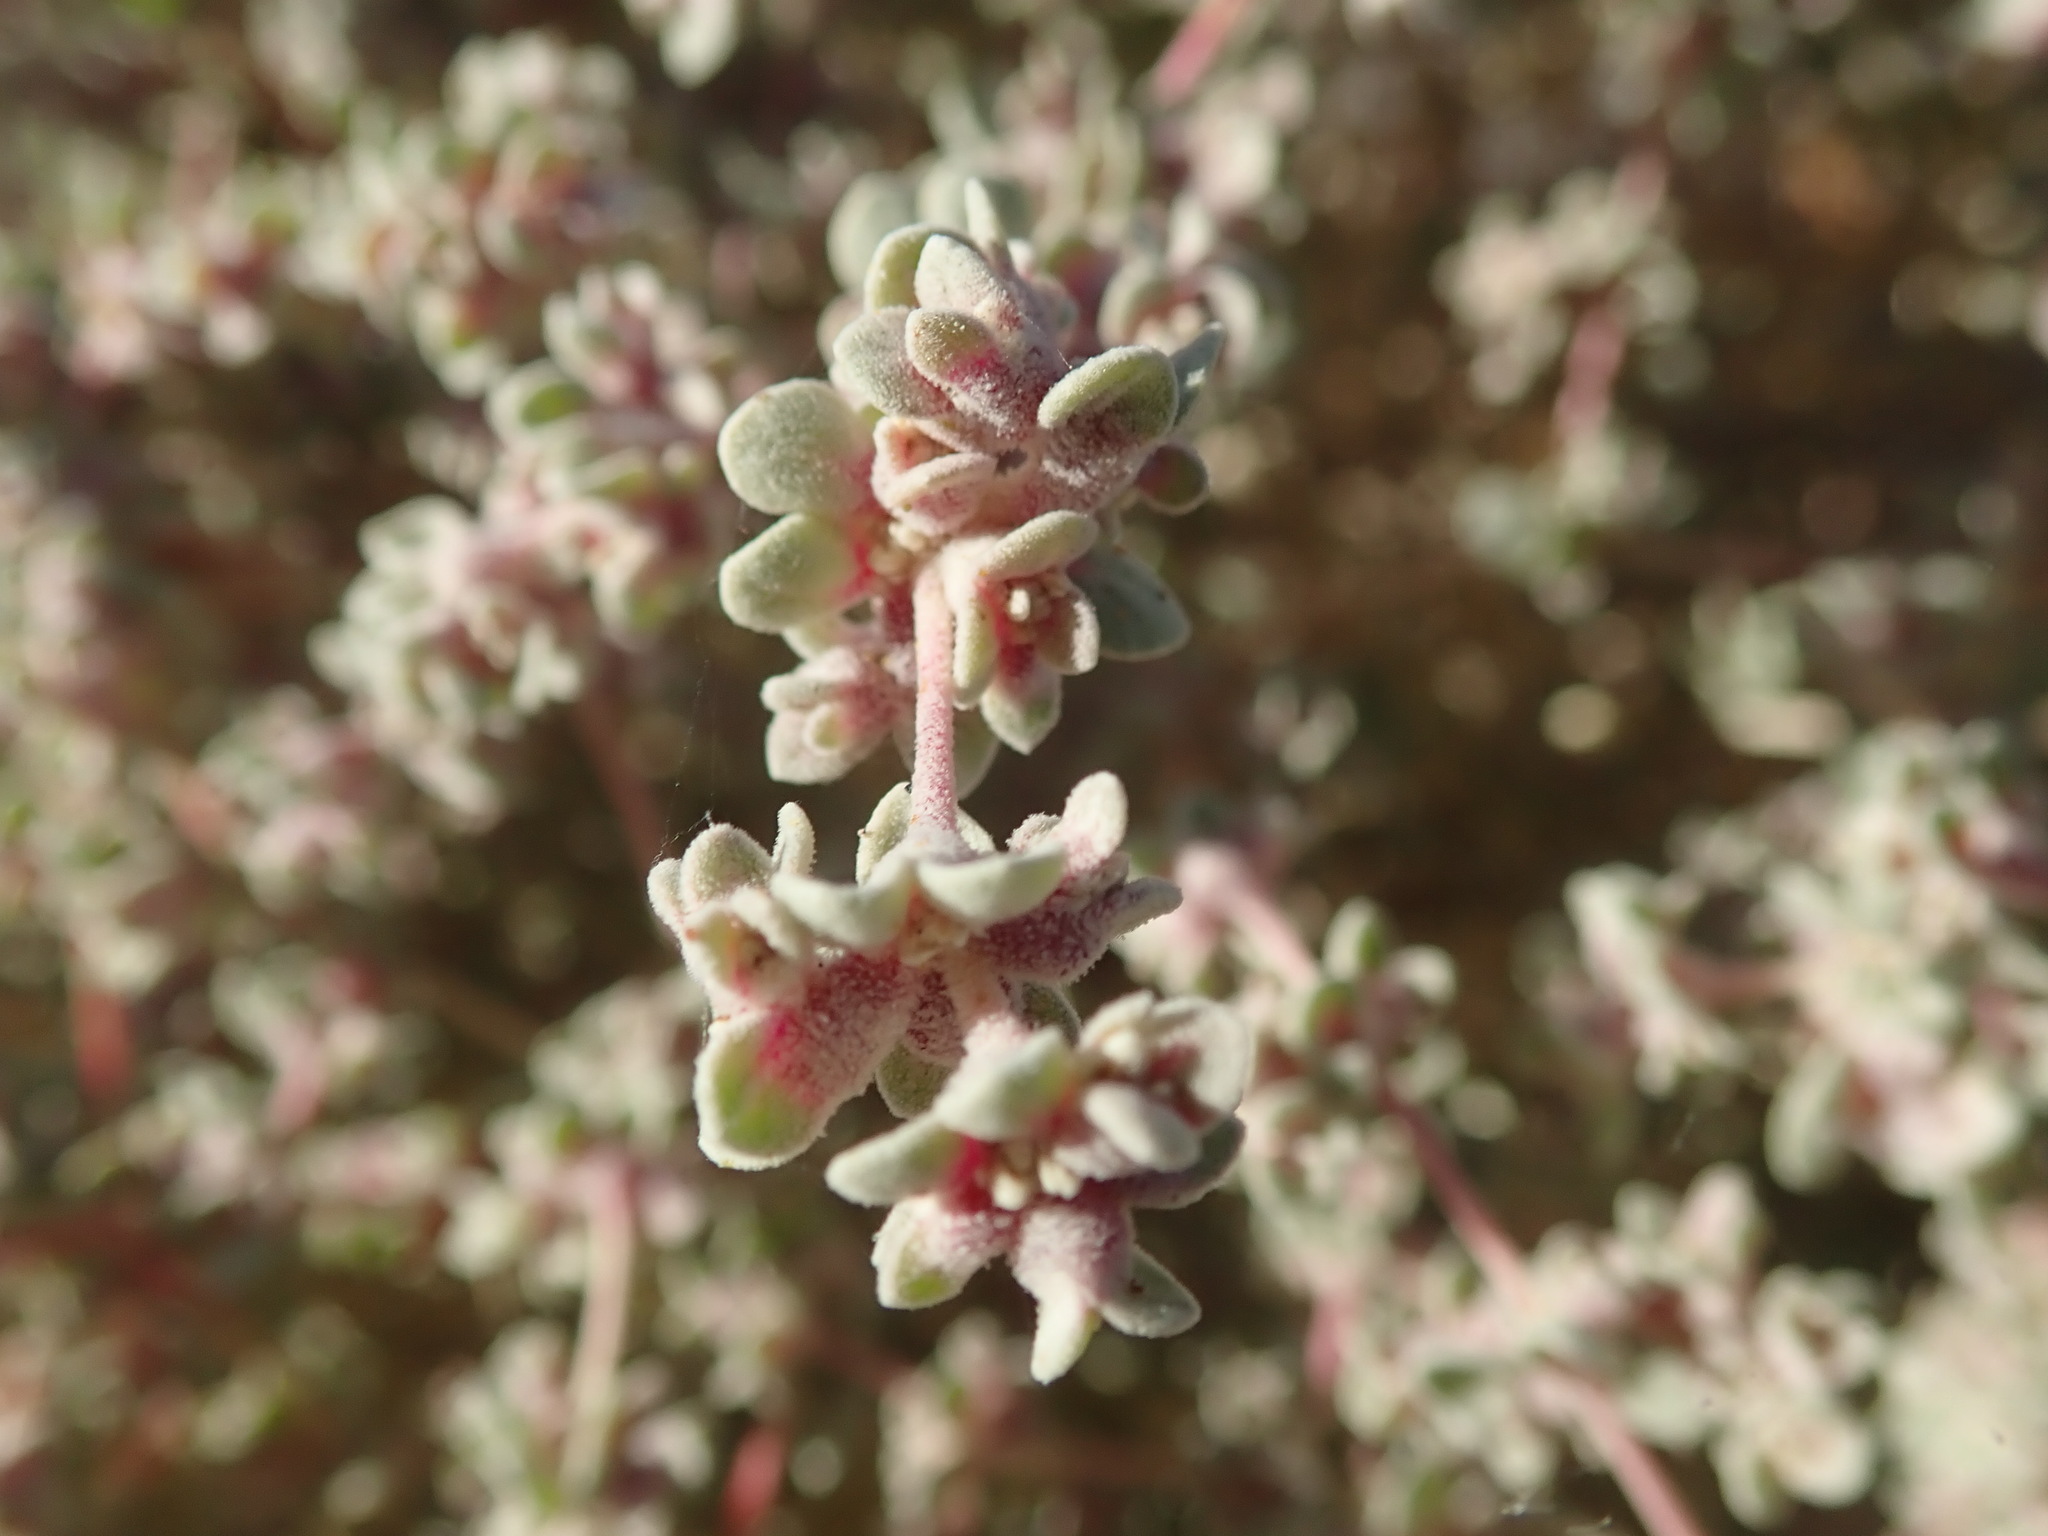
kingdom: Plantae
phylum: Tracheophyta
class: Magnoliopsida
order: Caryophyllales
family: Amaranthaceae
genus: Tidestromia
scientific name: Tidestromia suffruticosa
